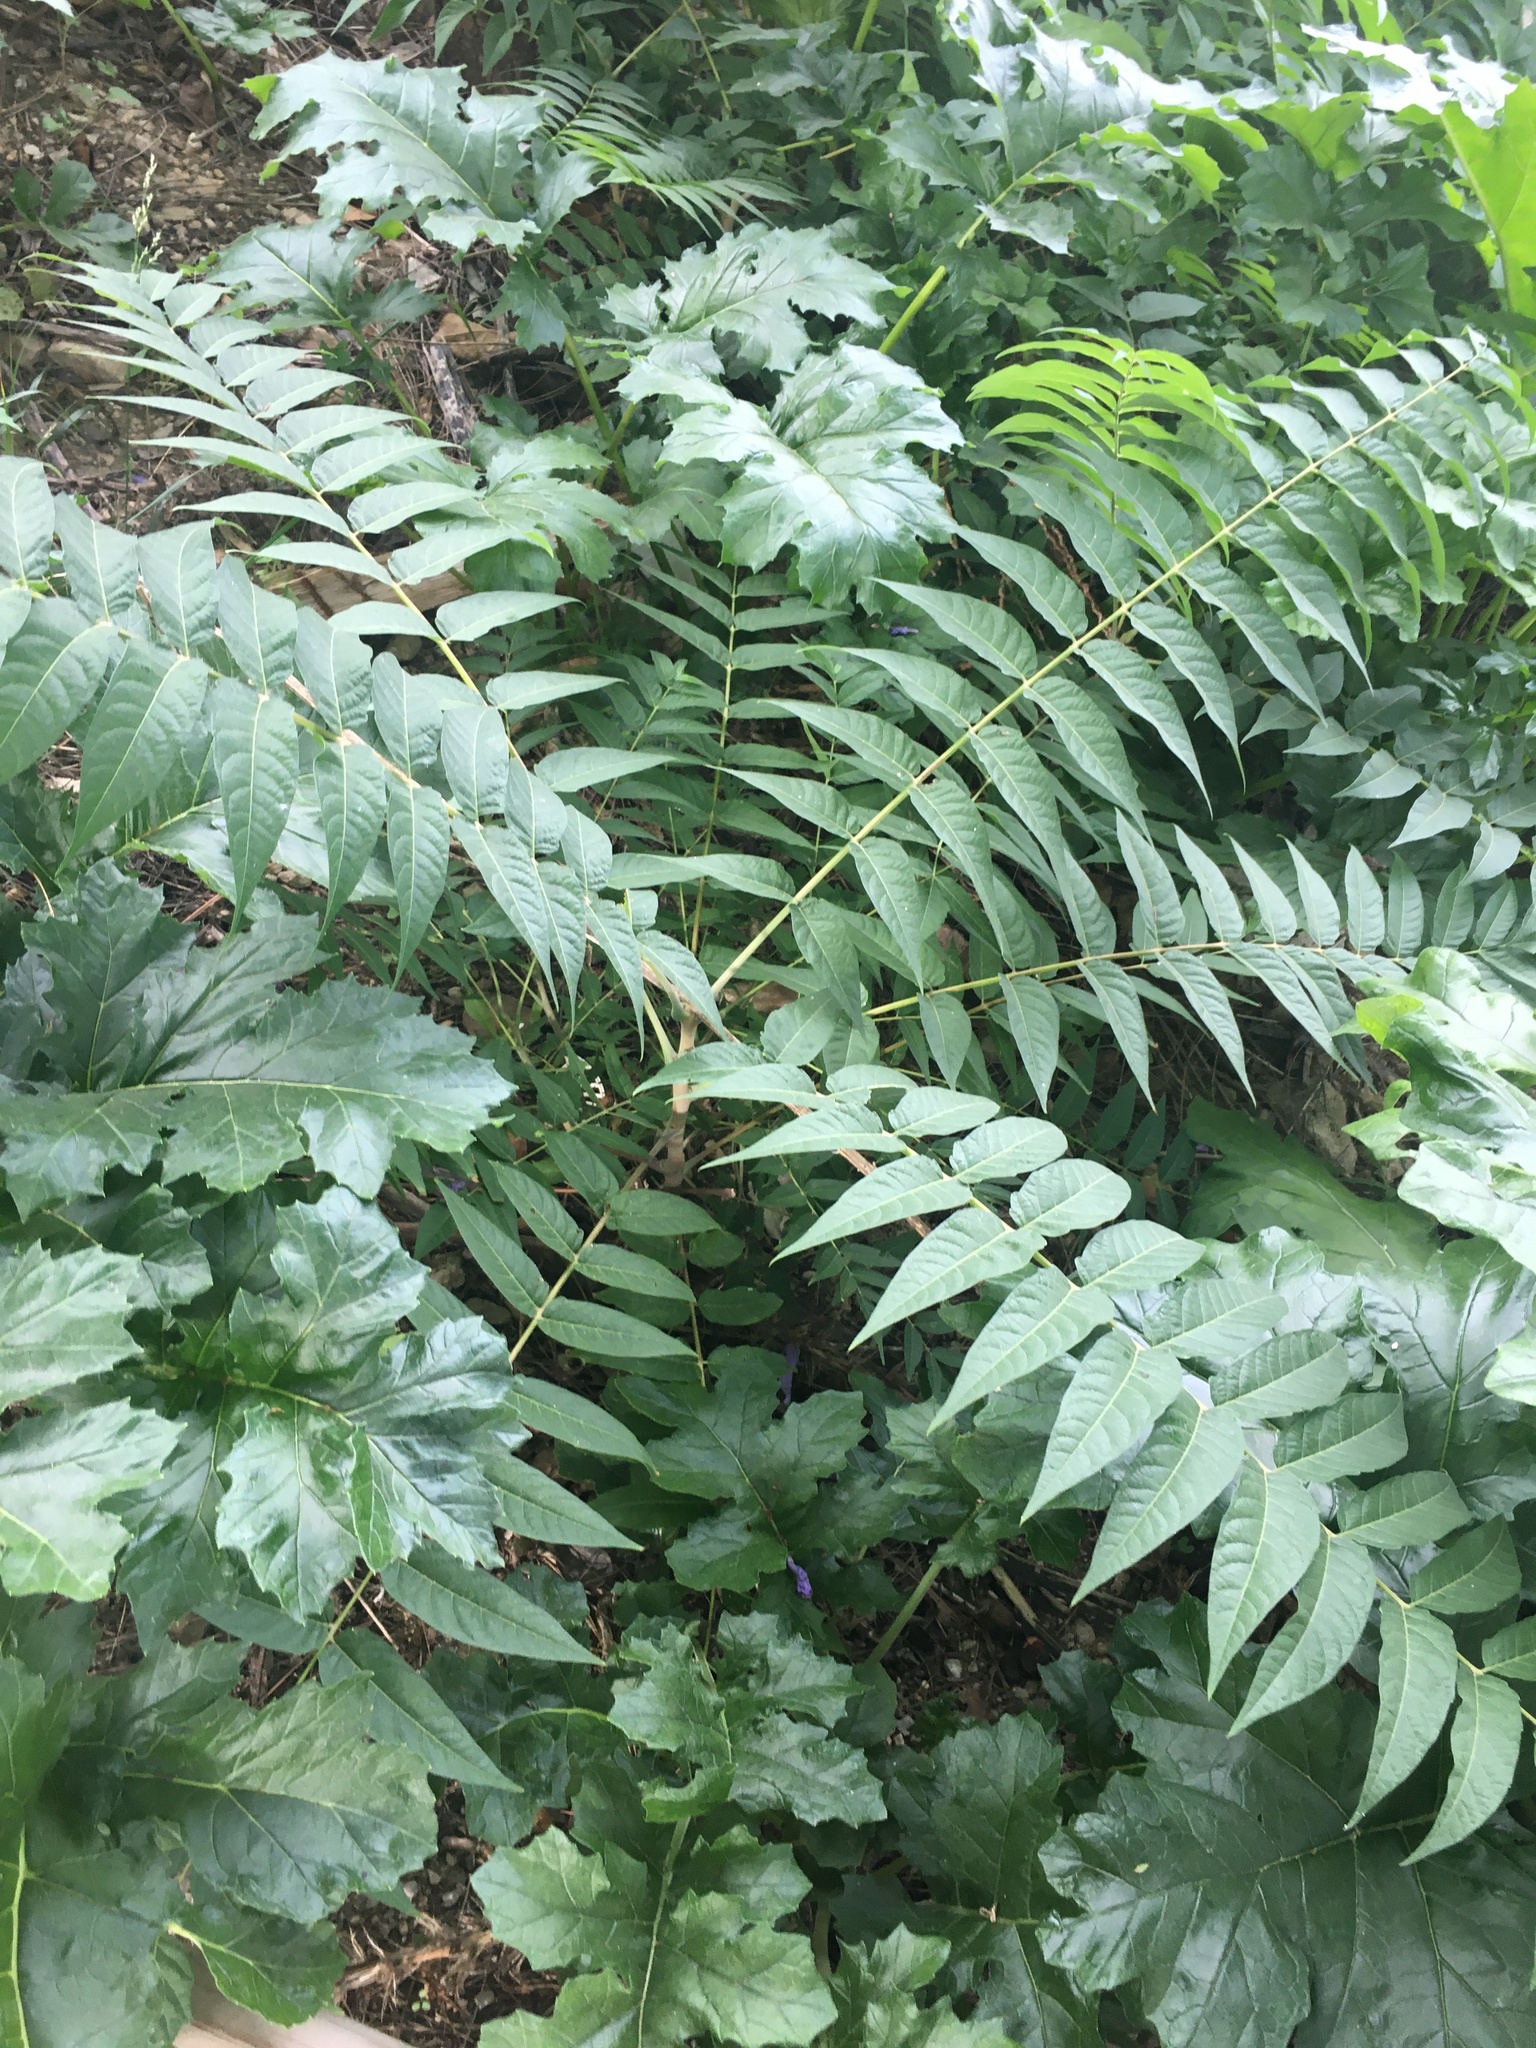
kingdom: Plantae
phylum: Tracheophyta
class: Magnoliopsida
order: Sapindales
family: Simaroubaceae
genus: Ailanthus
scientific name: Ailanthus altissima
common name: Tree-of-heaven
